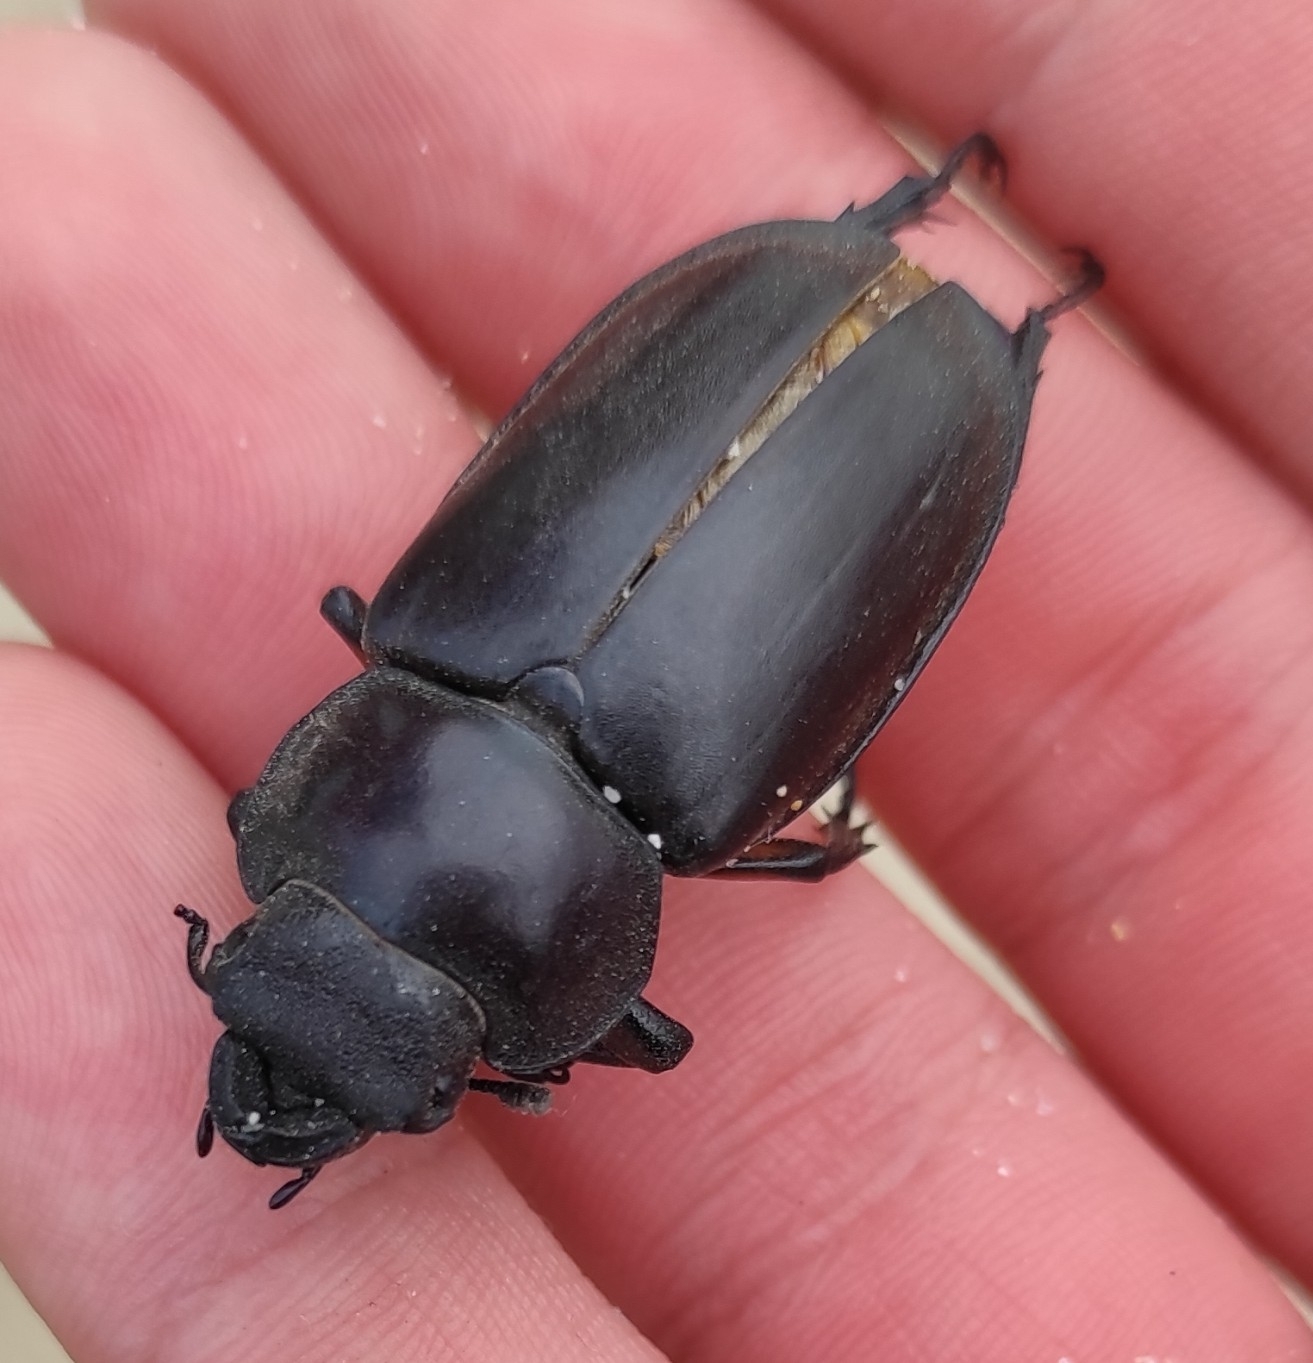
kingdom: Animalia
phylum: Arthropoda
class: Insecta
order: Coleoptera
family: Lucanidae
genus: Lucanus
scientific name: Lucanus maculifemoratus
